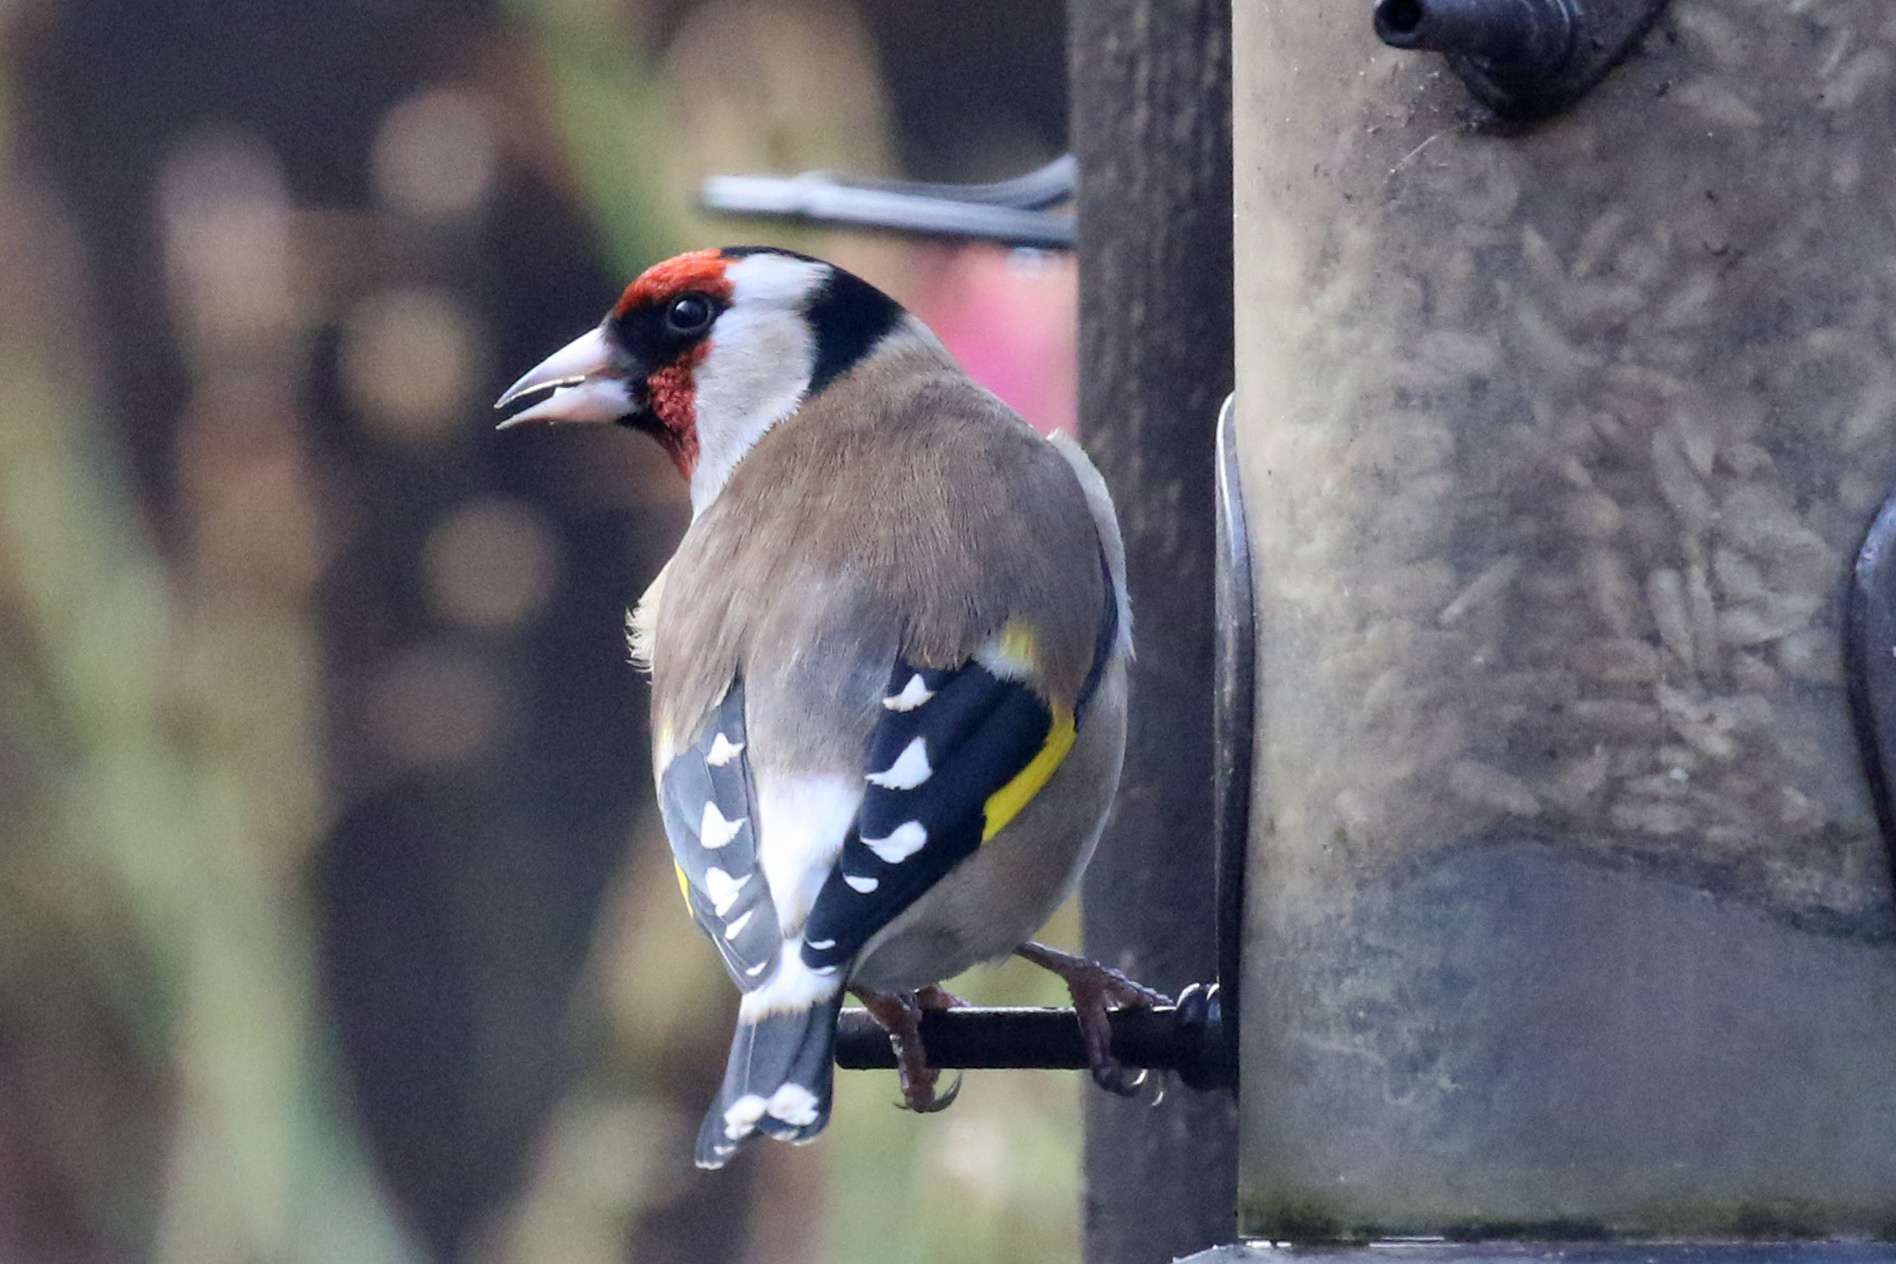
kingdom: Animalia
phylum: Chordata
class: Aves
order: Passeriformes
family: Fringillidae
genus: Carduelis
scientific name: Carduelis carduelis
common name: European goldfinch
